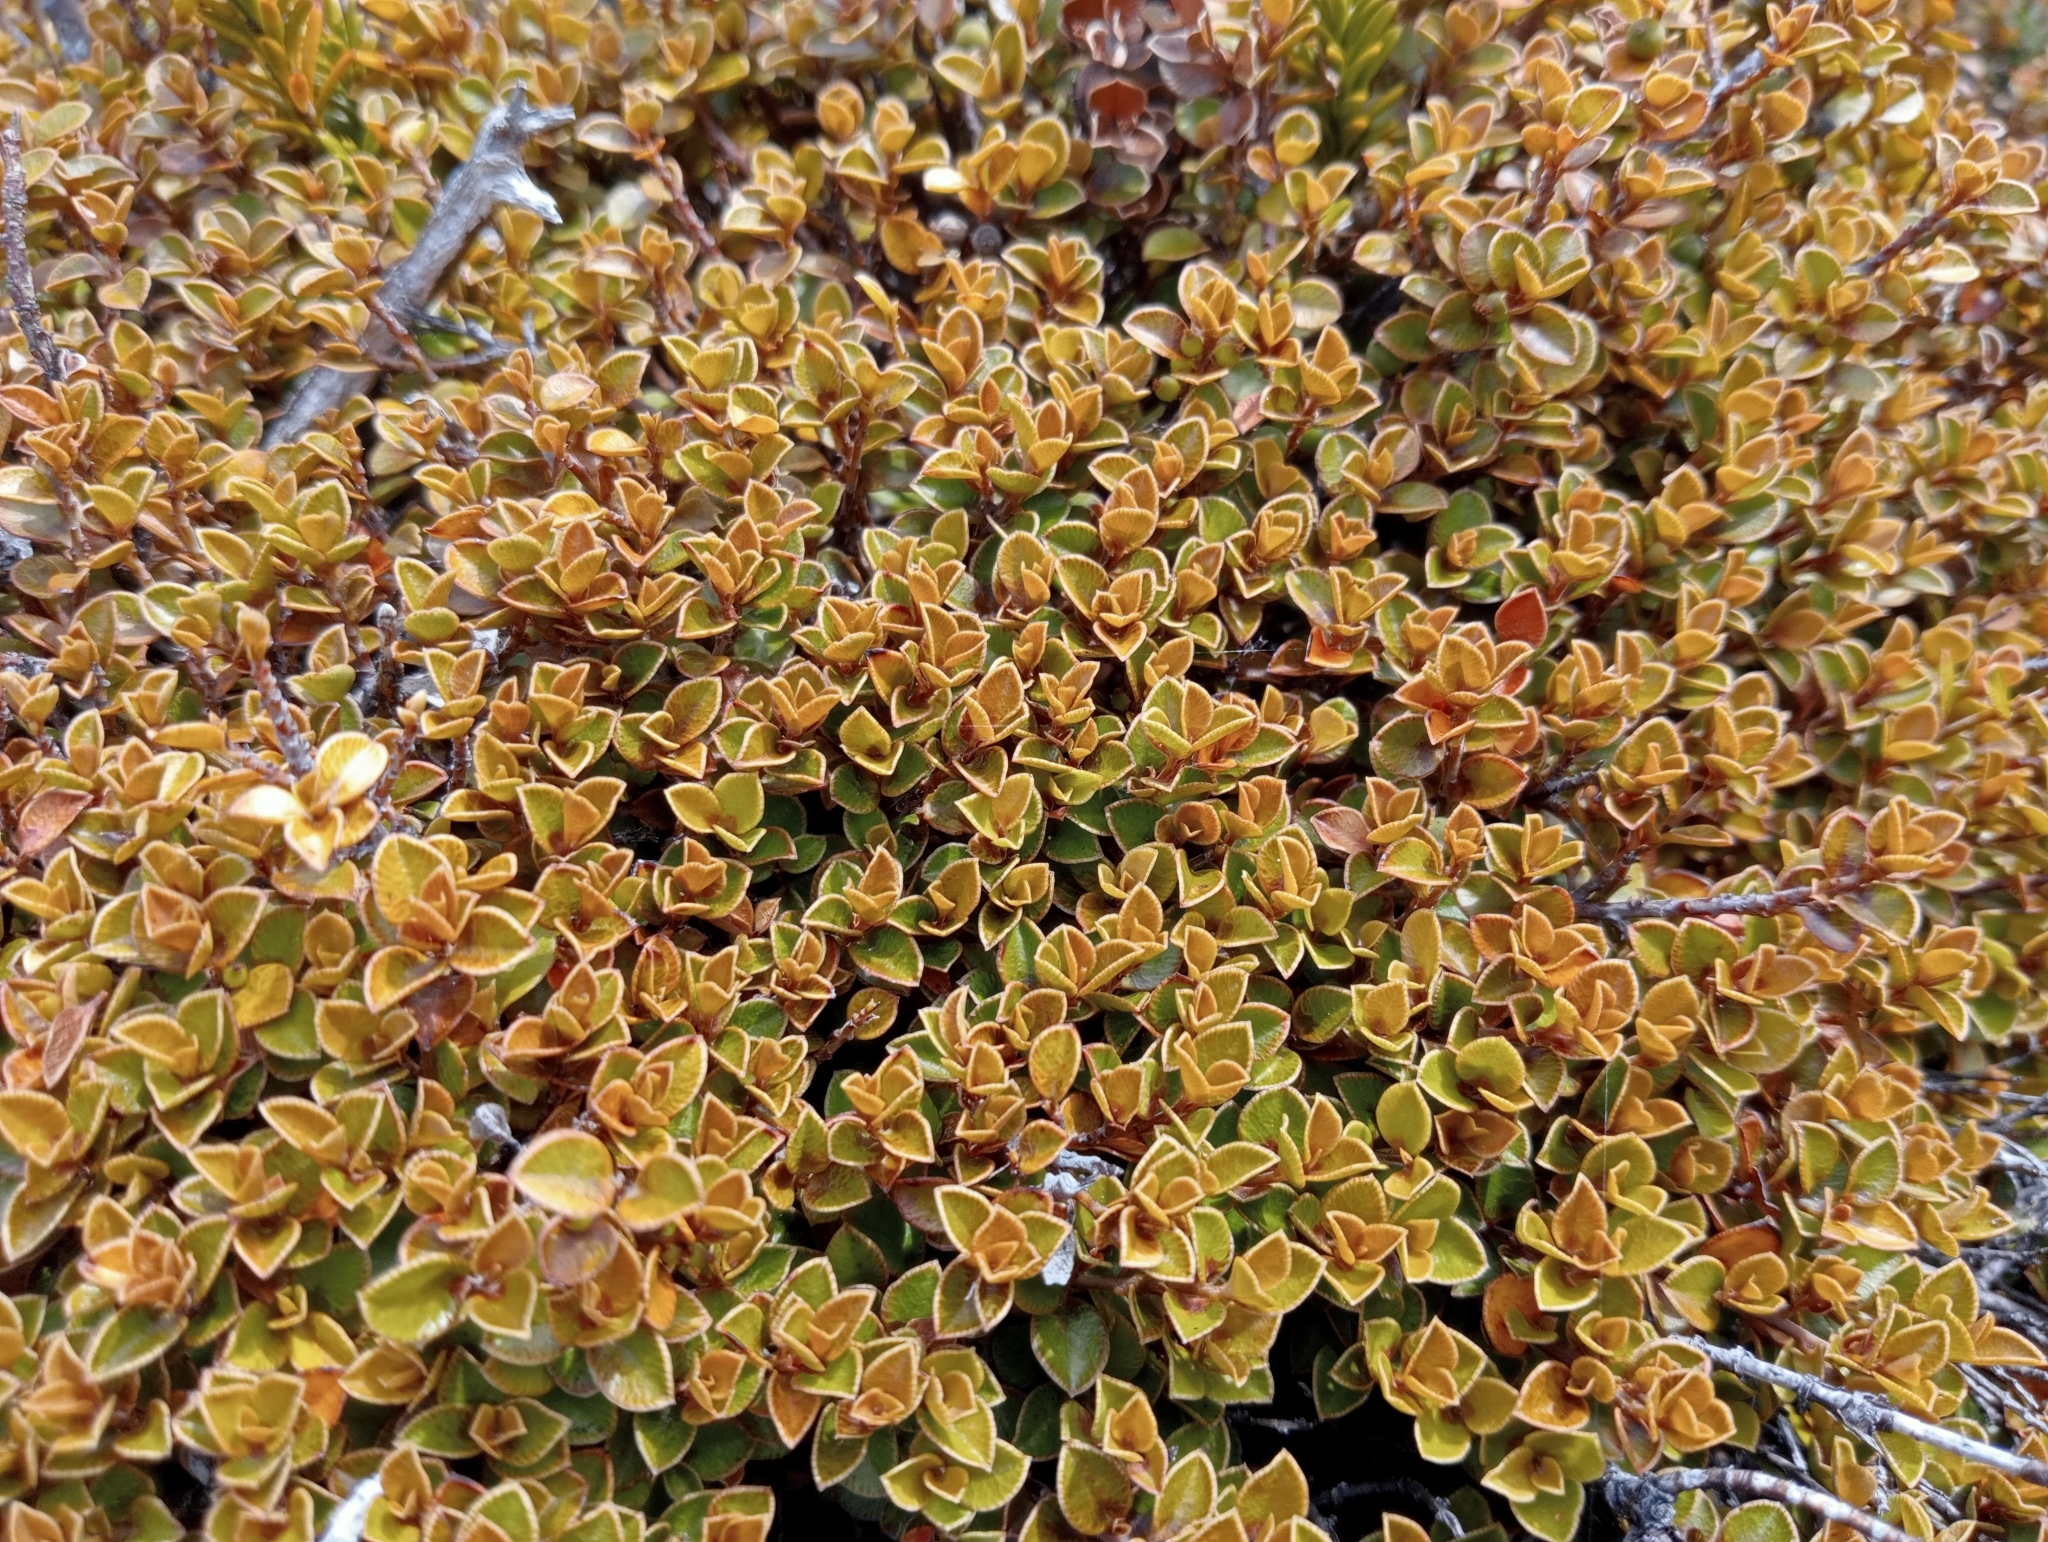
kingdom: Plantae
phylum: Tracheophyta
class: Magnoliopsida
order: Ericales
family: Primulaceae
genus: Myrsine
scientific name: Myrsine nummularia
